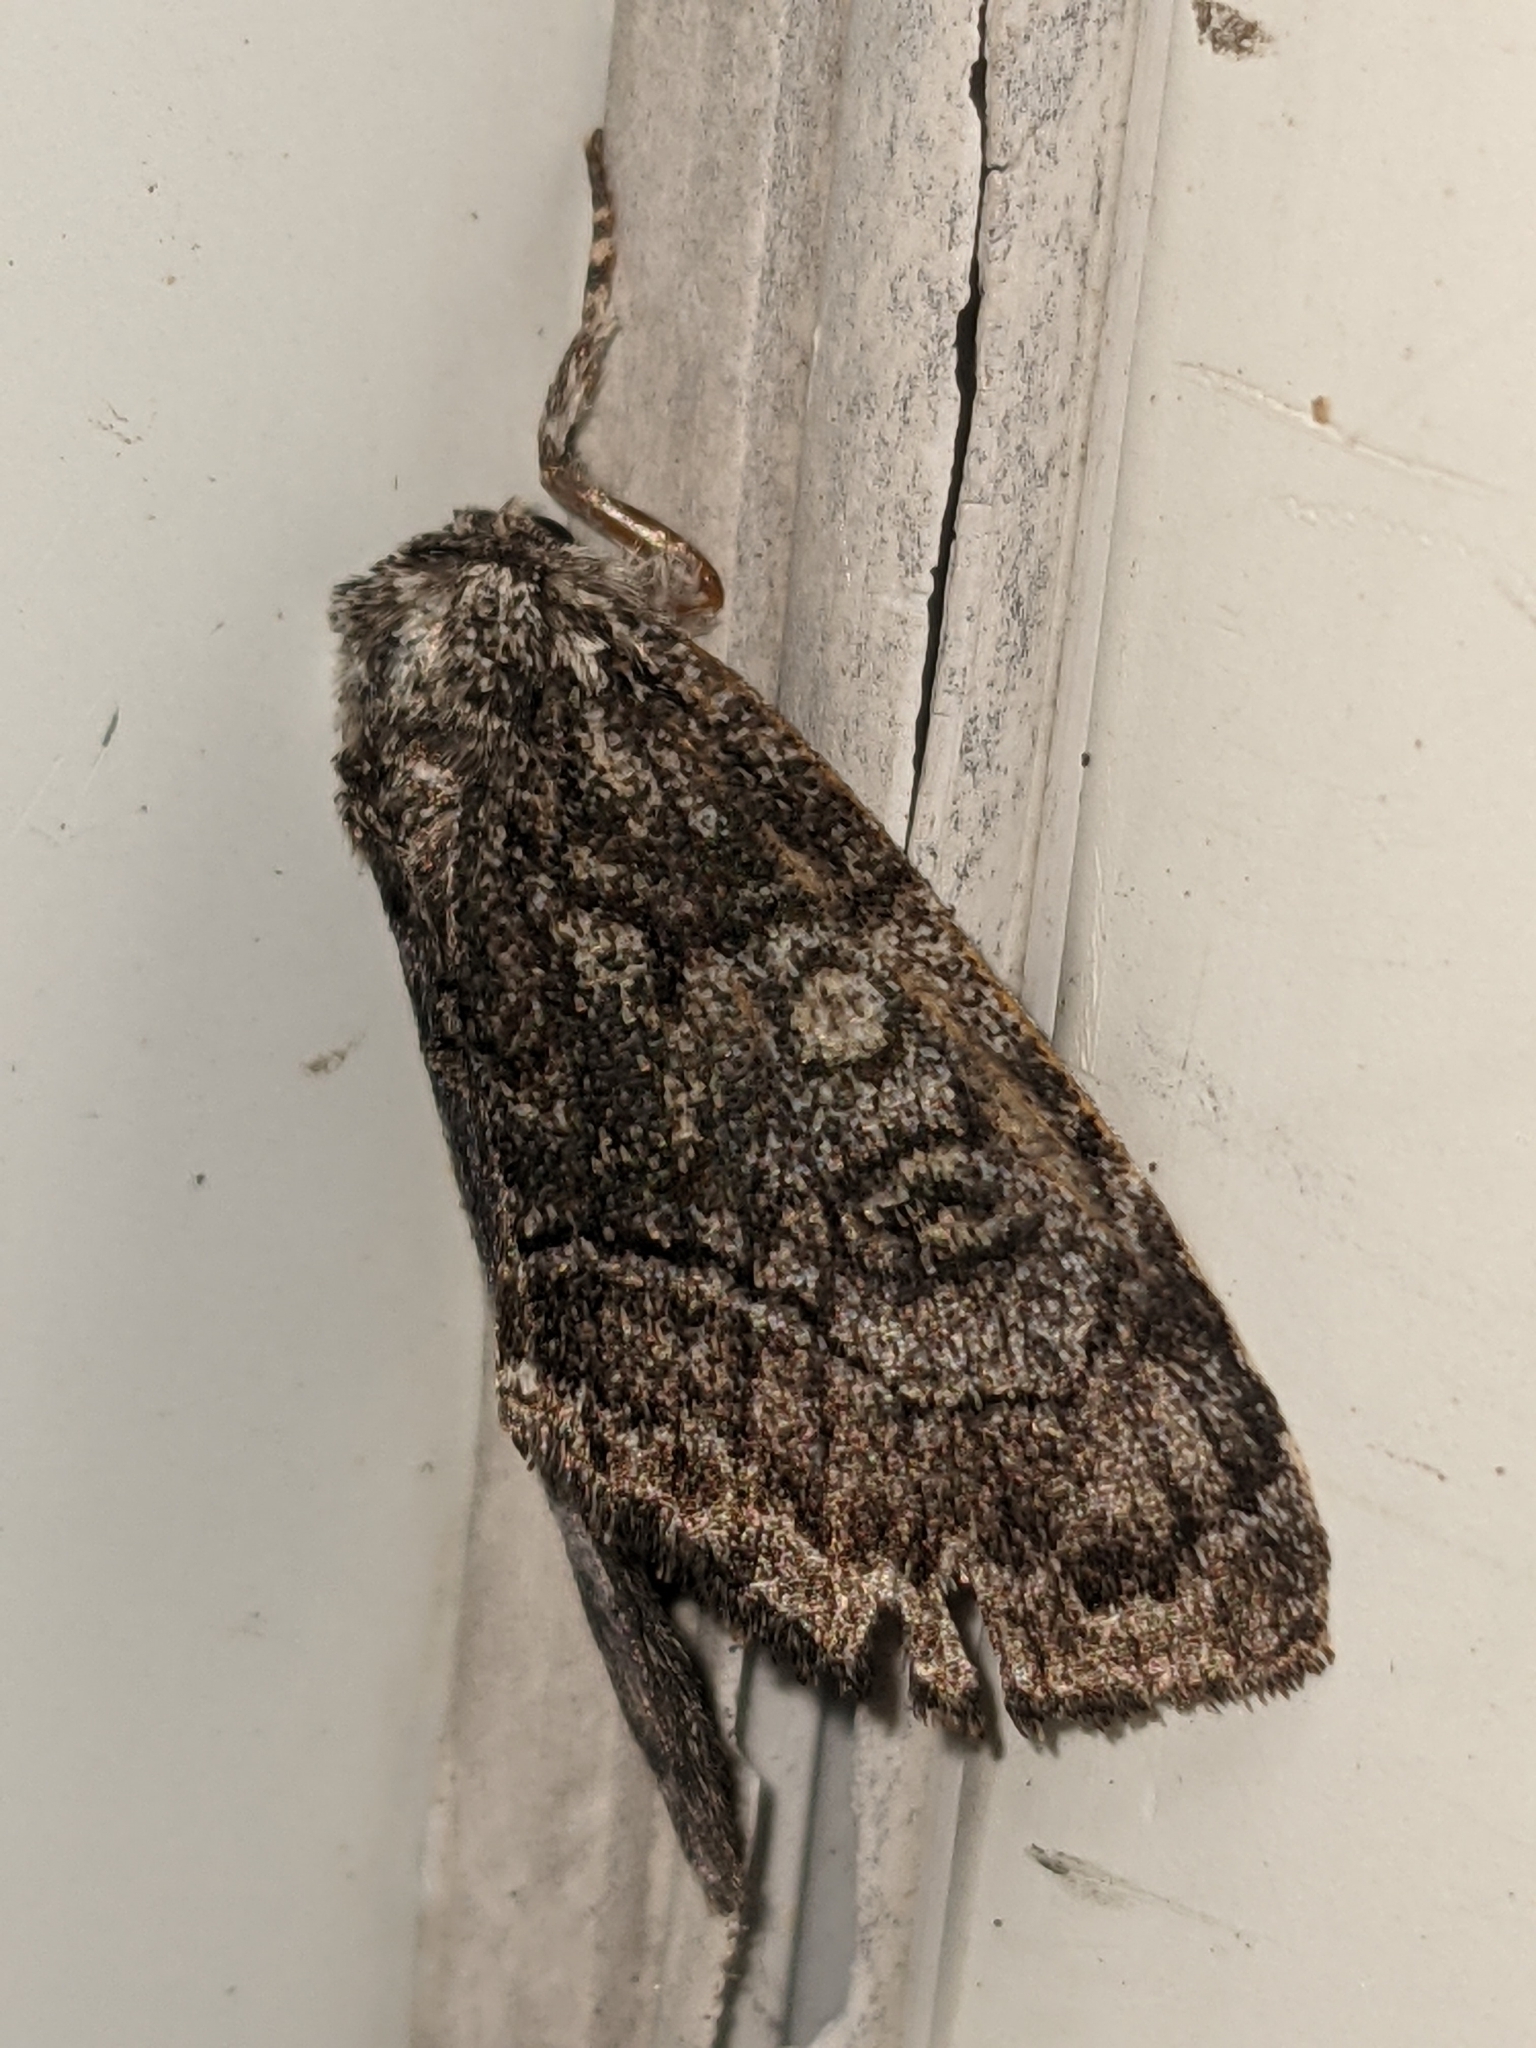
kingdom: Animalia
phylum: Arthropoda
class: Insecta
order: Lepidoptera
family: Noctuidae
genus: Raphia
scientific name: Raphia frater
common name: Brother
